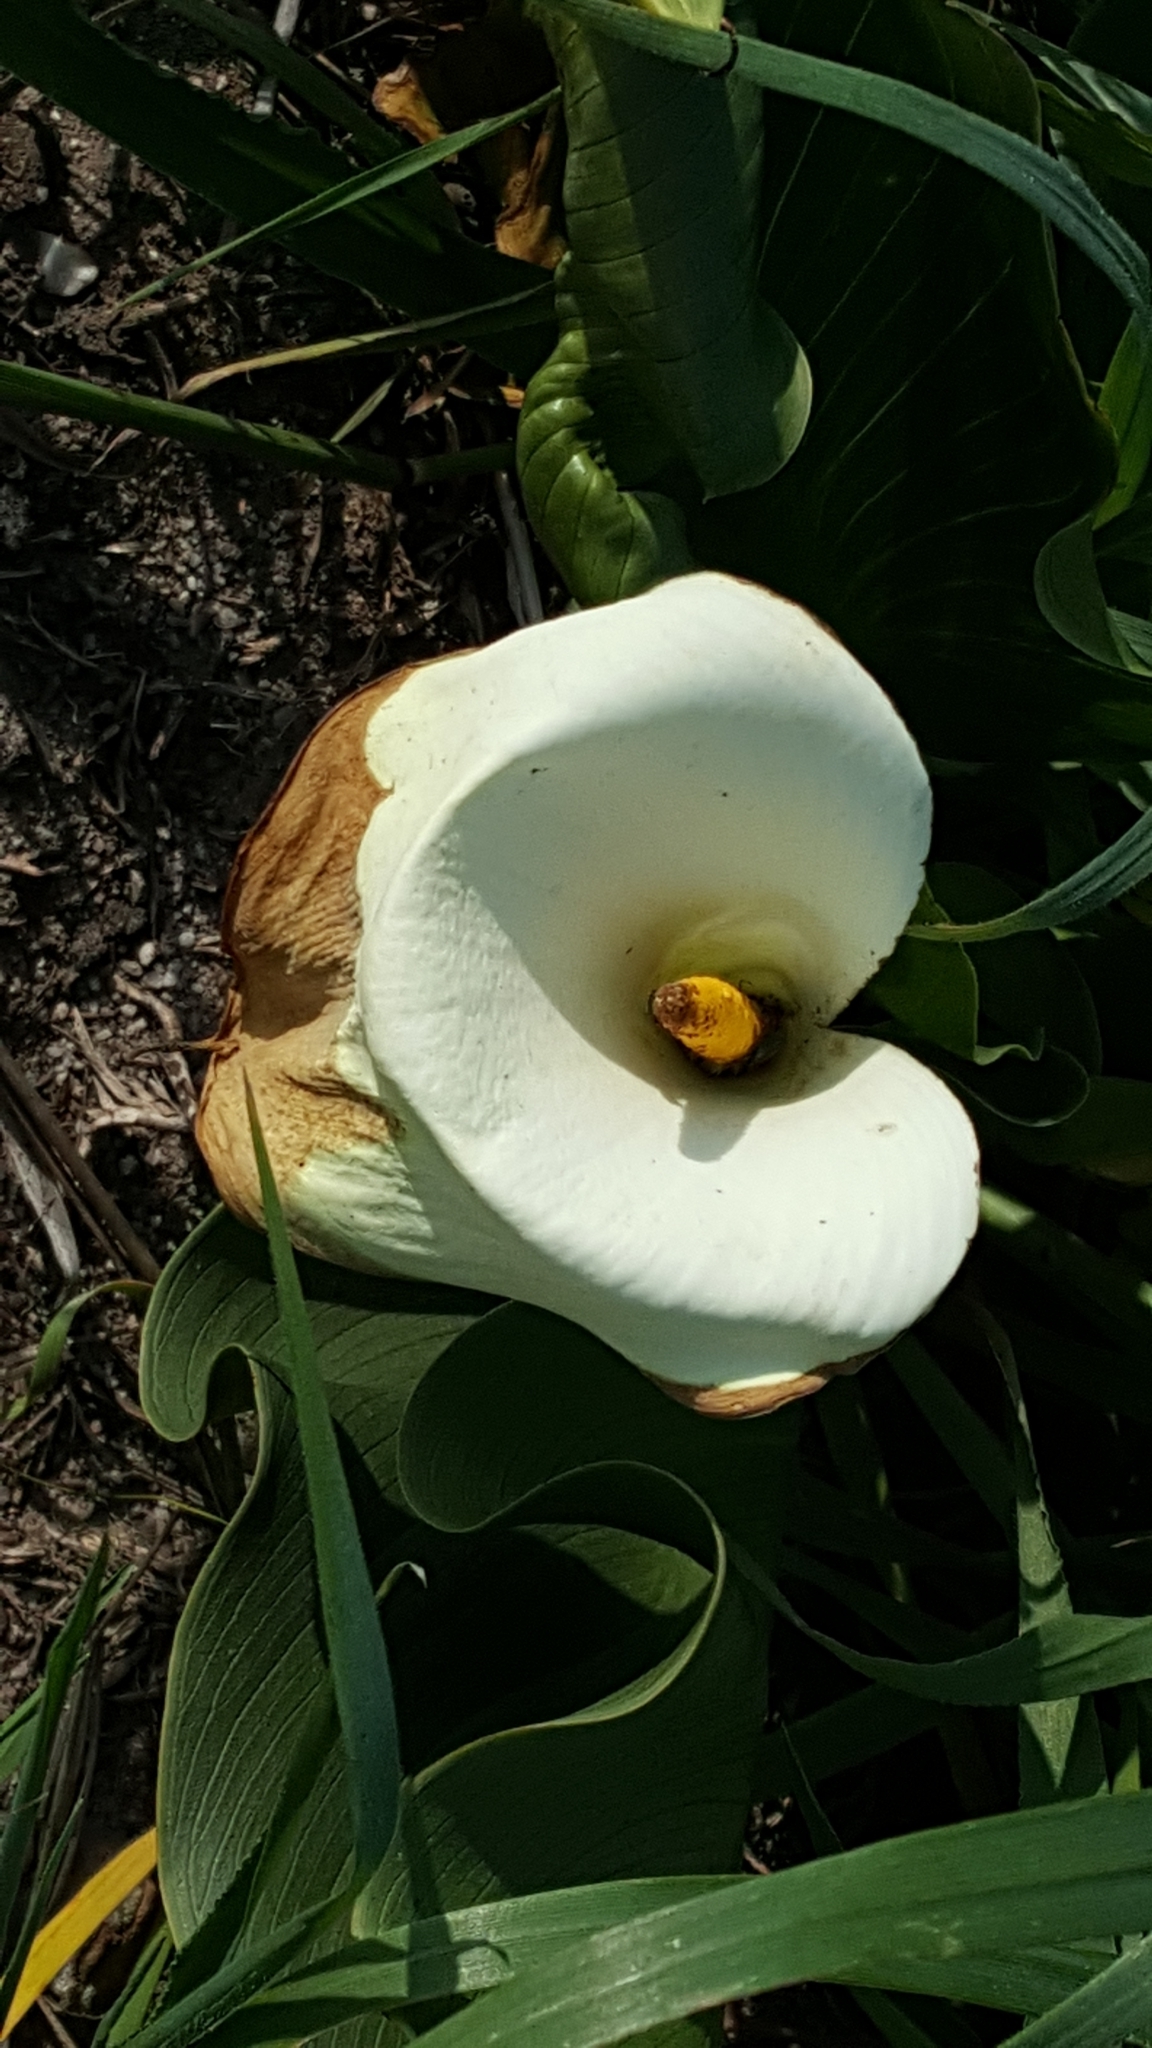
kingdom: Plantae
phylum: Tracheophyta
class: Liliopsida
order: Alismatales
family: Araceae
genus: Zantedeschia
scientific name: Zantedeschia aethiopica
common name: Altar-lily
